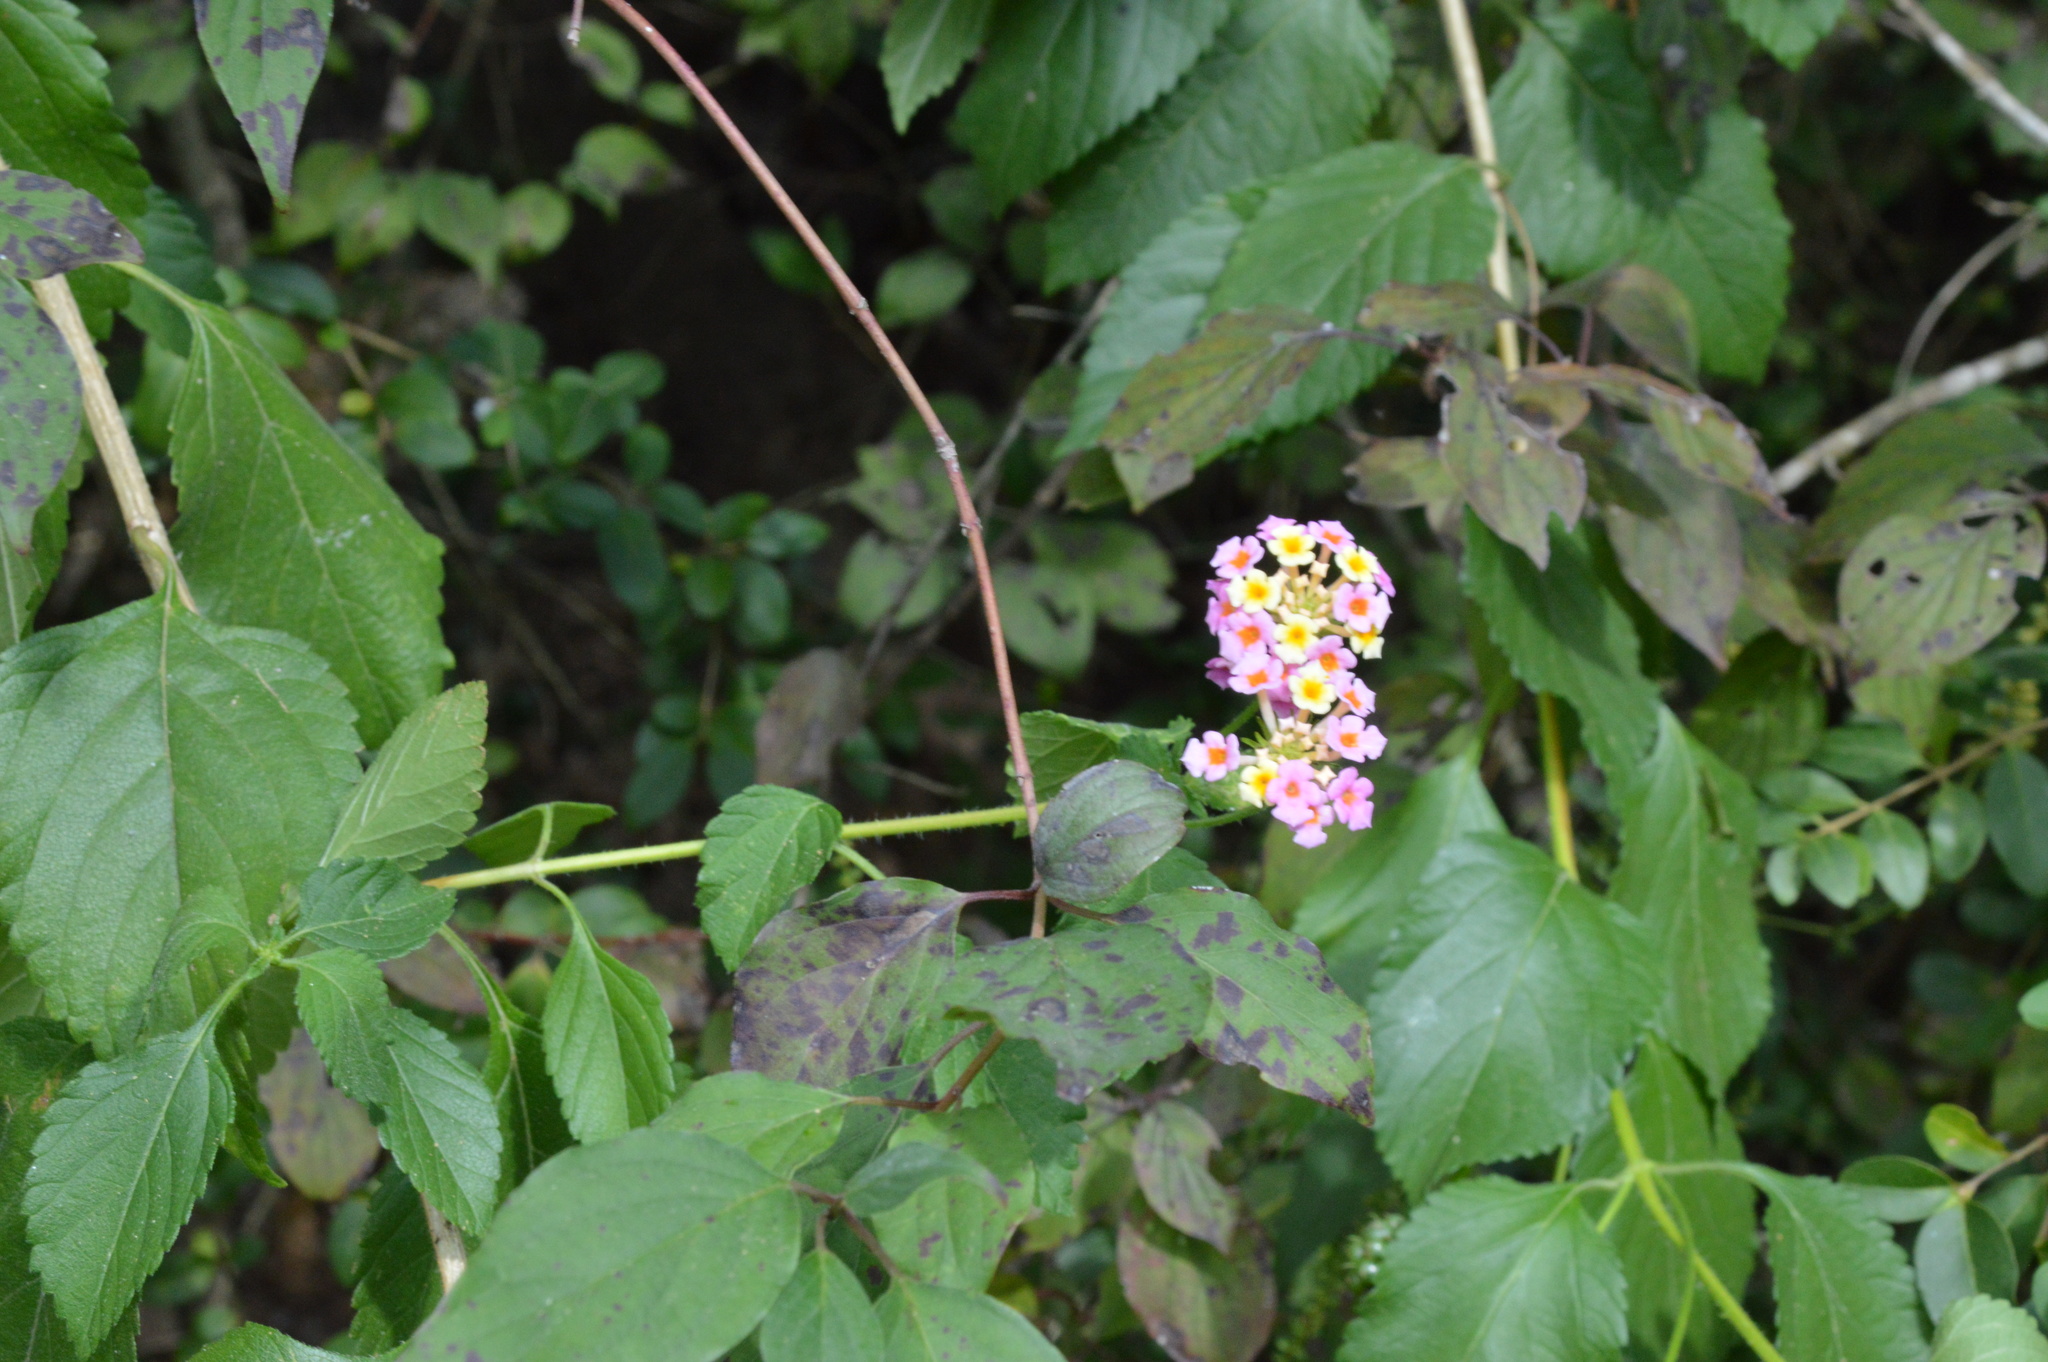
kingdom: Plantae
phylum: Tracheophyta
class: Magnoliopsida
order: Lamiales
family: Verbenaceae
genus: Lantana
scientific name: Lantana strigocamara
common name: Lantana
